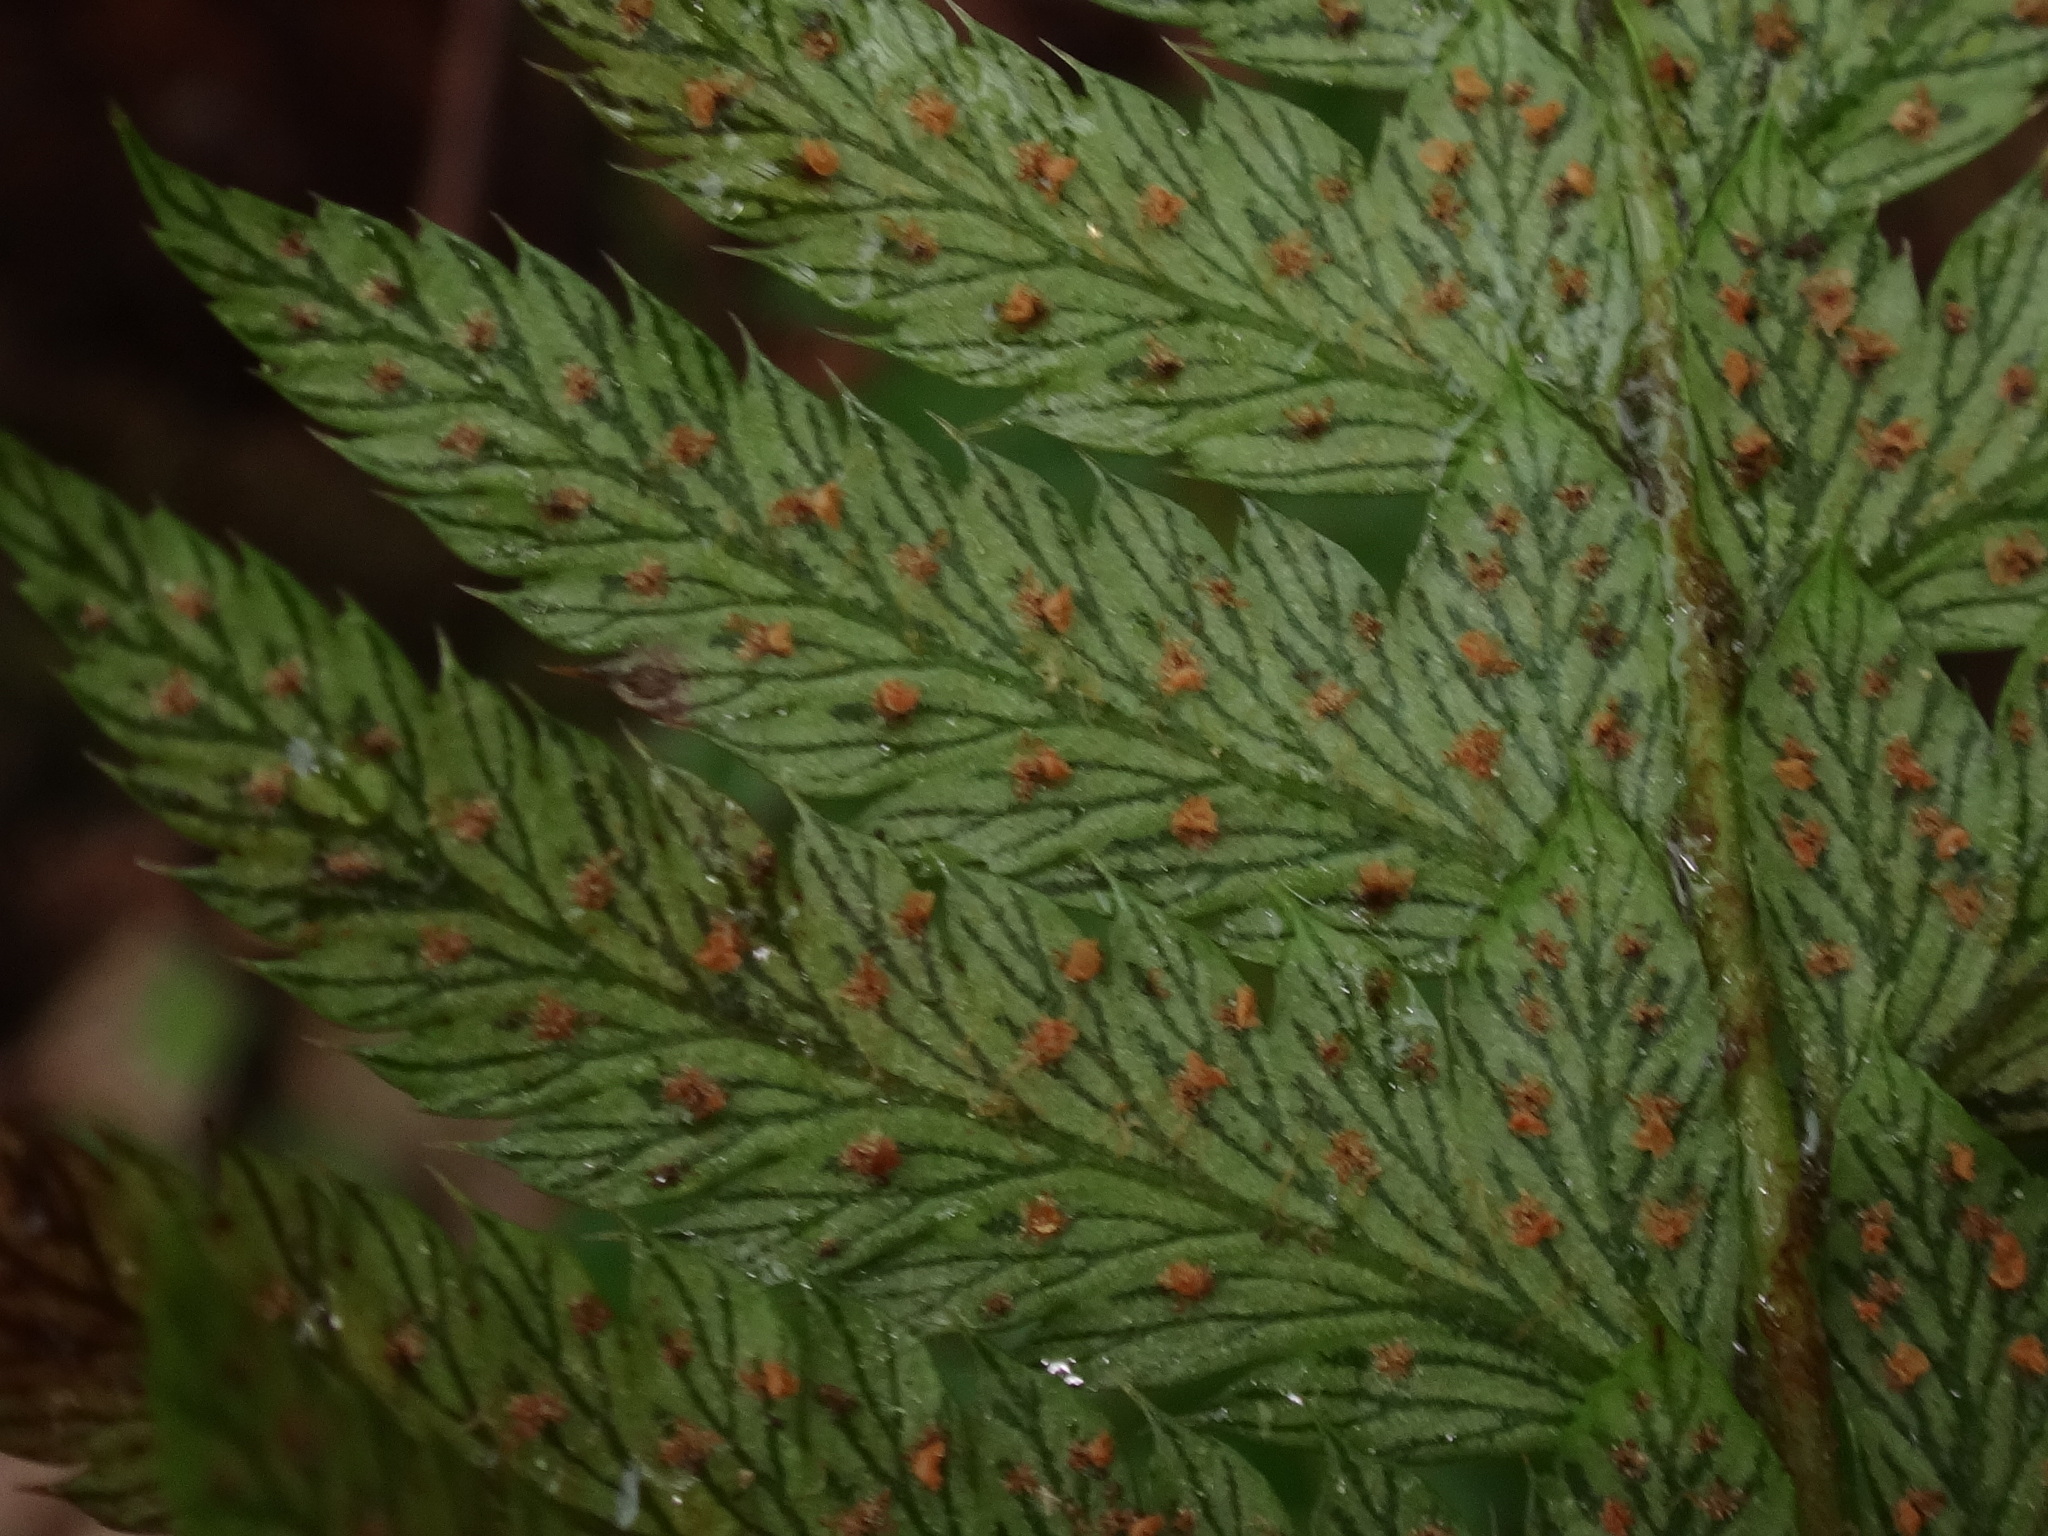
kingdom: Plantae
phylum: Tracheophyta
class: Polypodiopsida
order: Polypodiales
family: Dryopteridaceae
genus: Polystichum
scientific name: Polystichum aculeatum
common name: Hard shield-fern
